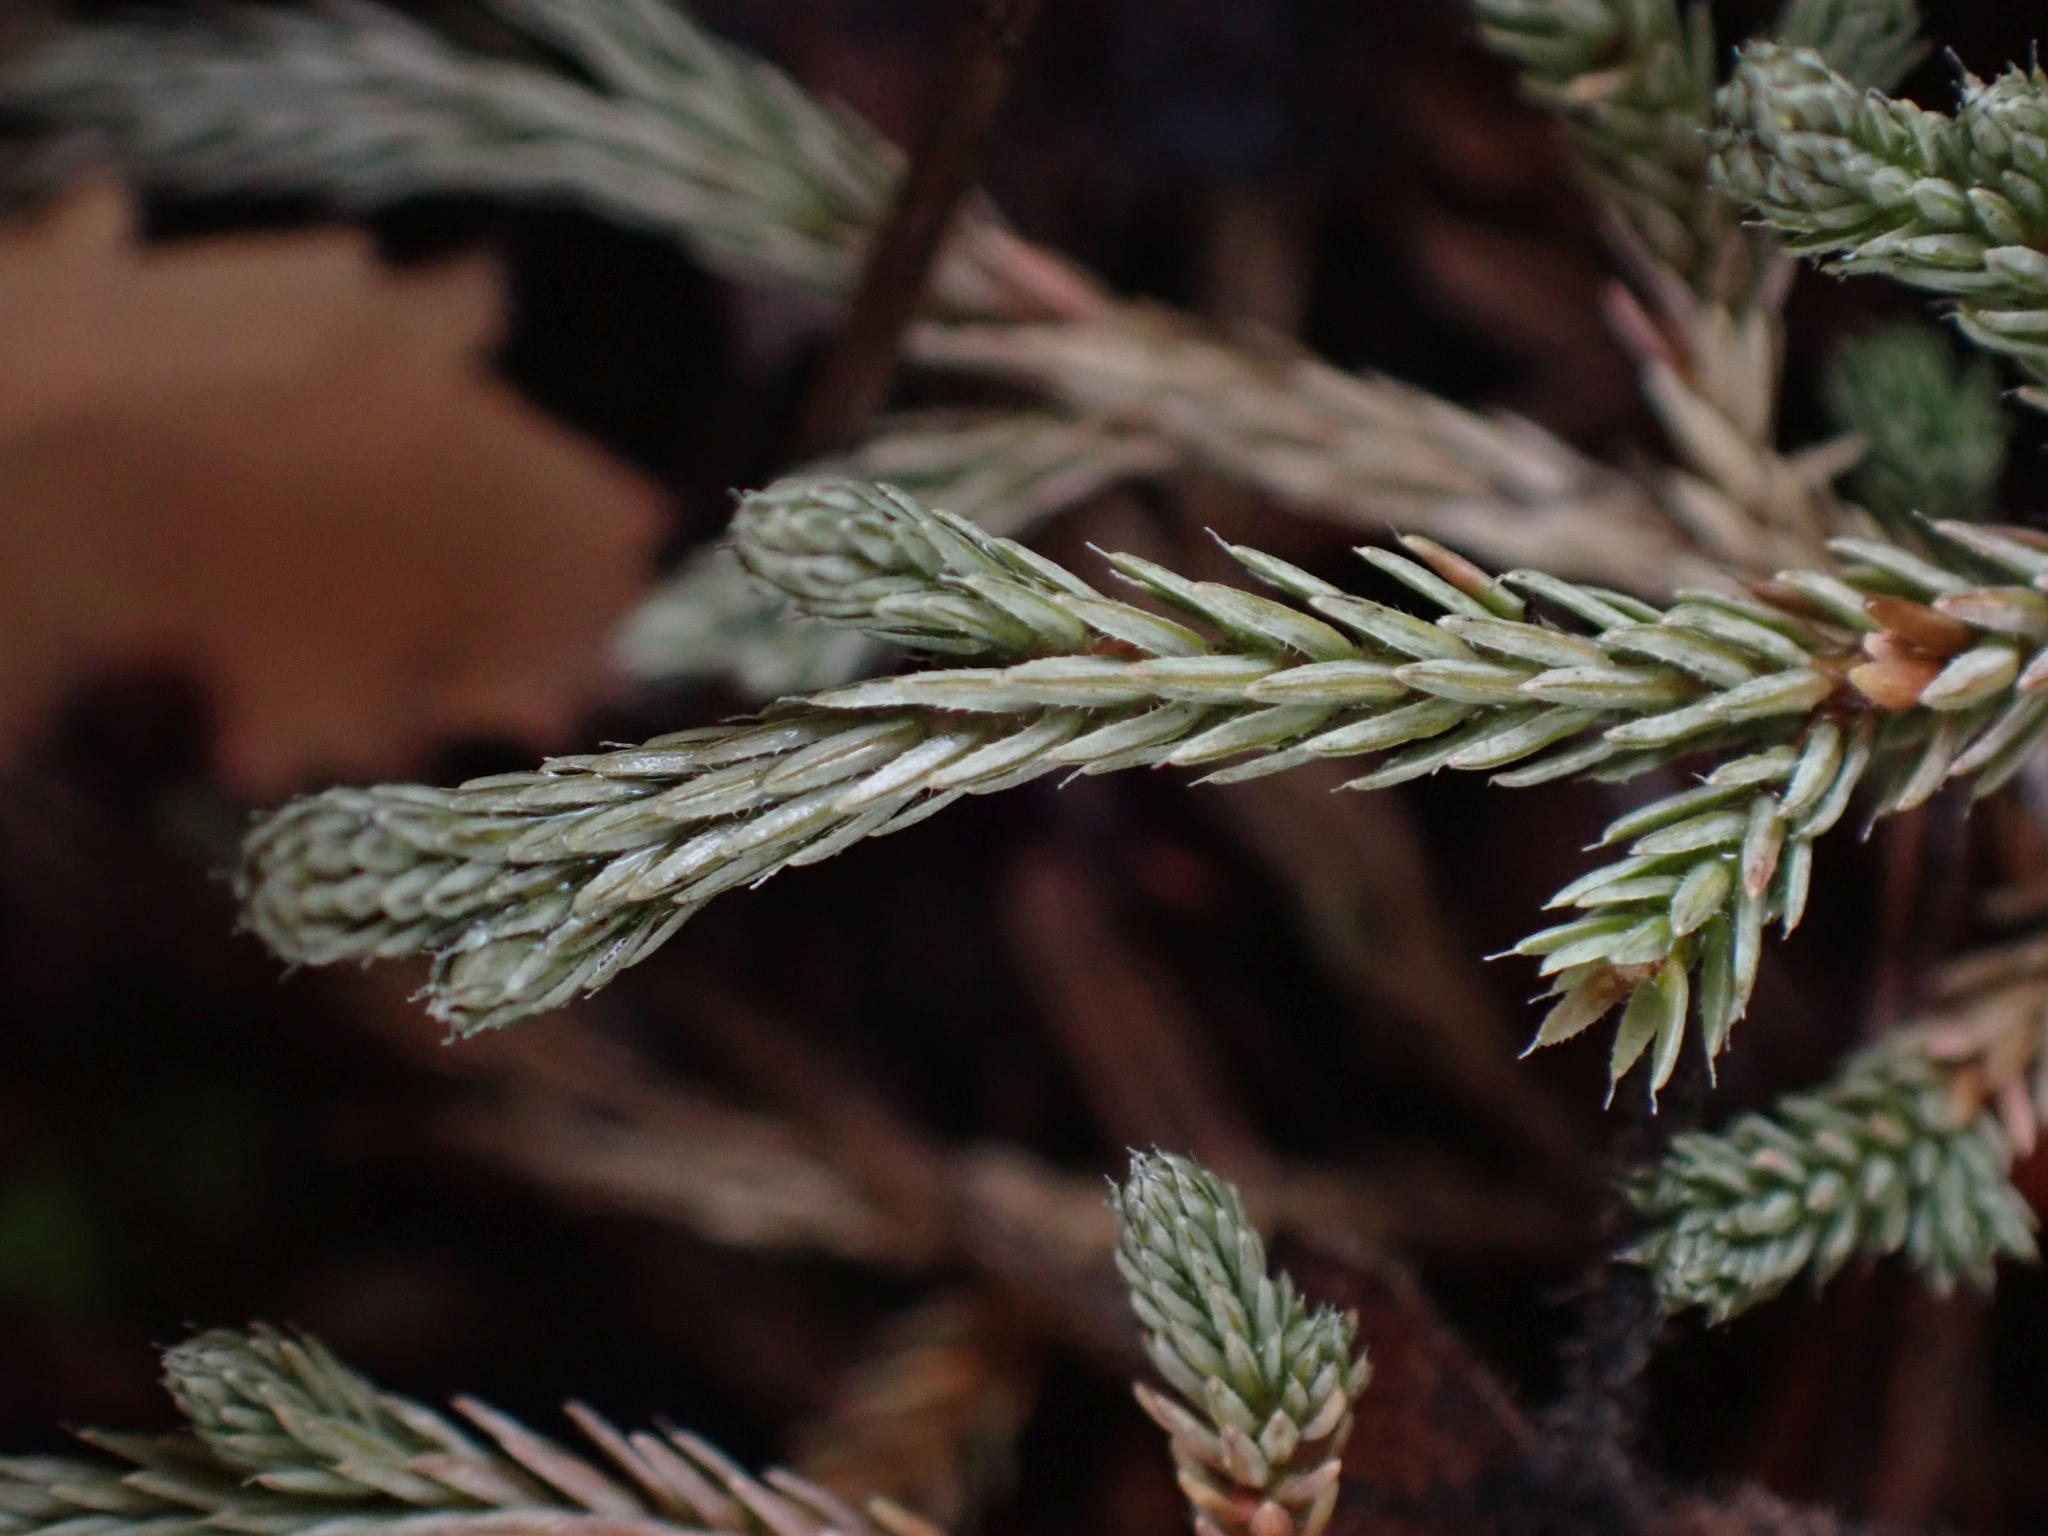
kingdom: Plantae
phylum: Tracheophyta
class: Lycopodiopsida
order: Selaginellales
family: Selaginellaceae
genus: Selaginella
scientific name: Selaginella wallacei
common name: Wallace's selaginella
